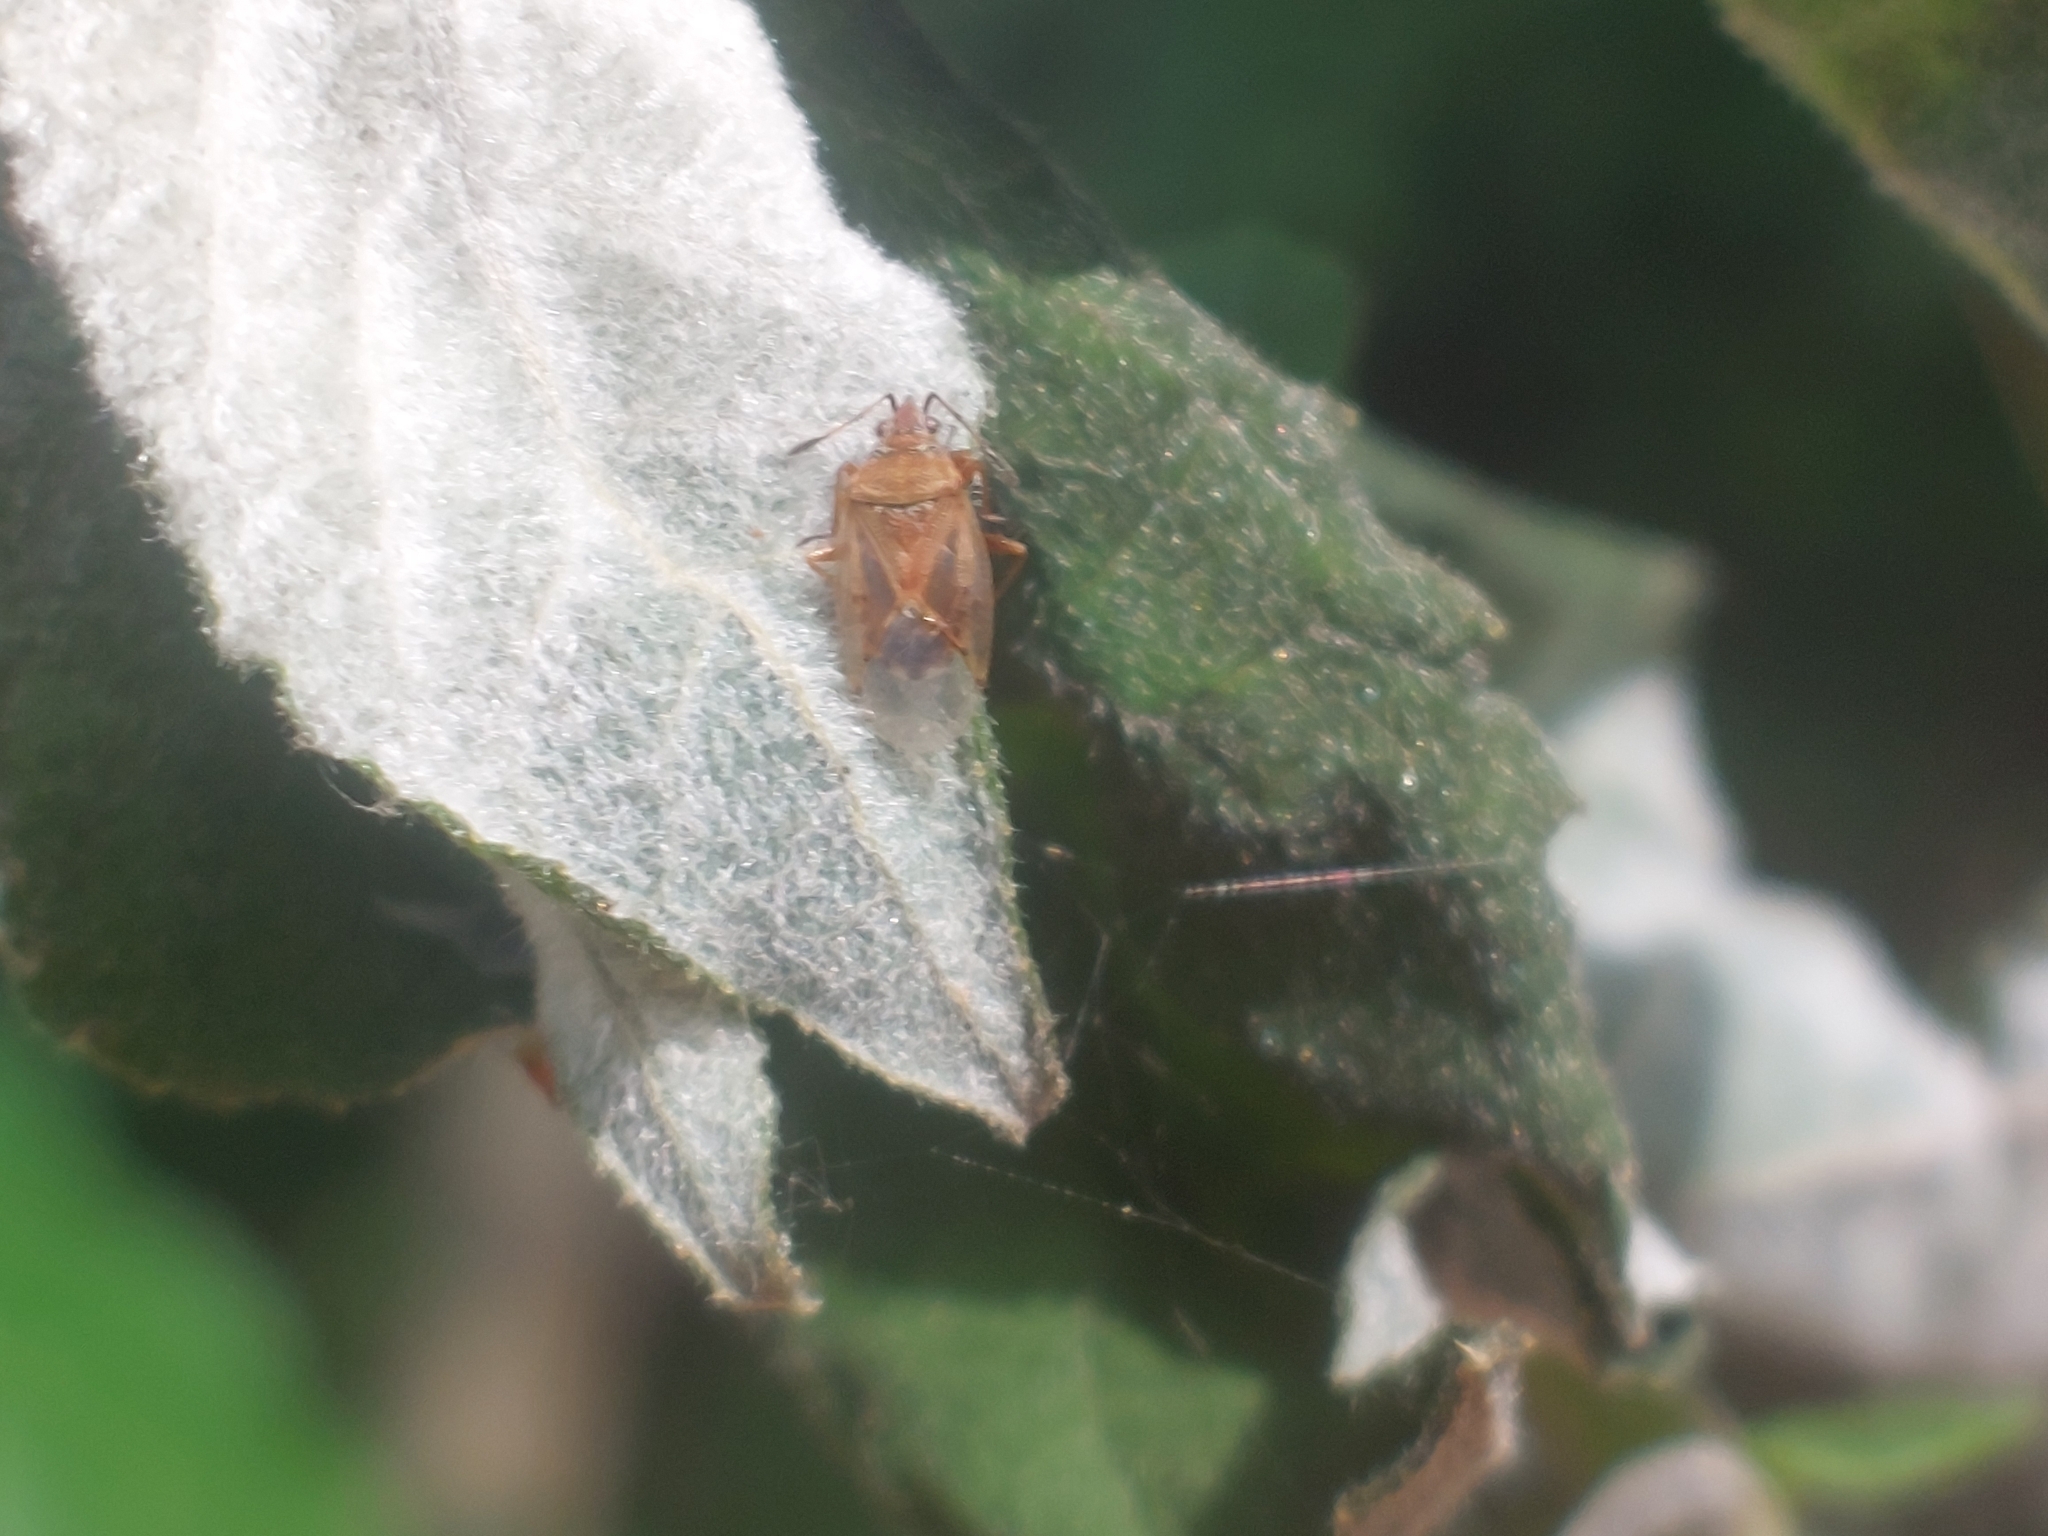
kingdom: Animalia
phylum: Arthropoda
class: Insecta
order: Hemiptera
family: Lygaeidae
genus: Kleidocerys
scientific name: Kleidocerys resedae
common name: Birch catkin bug
